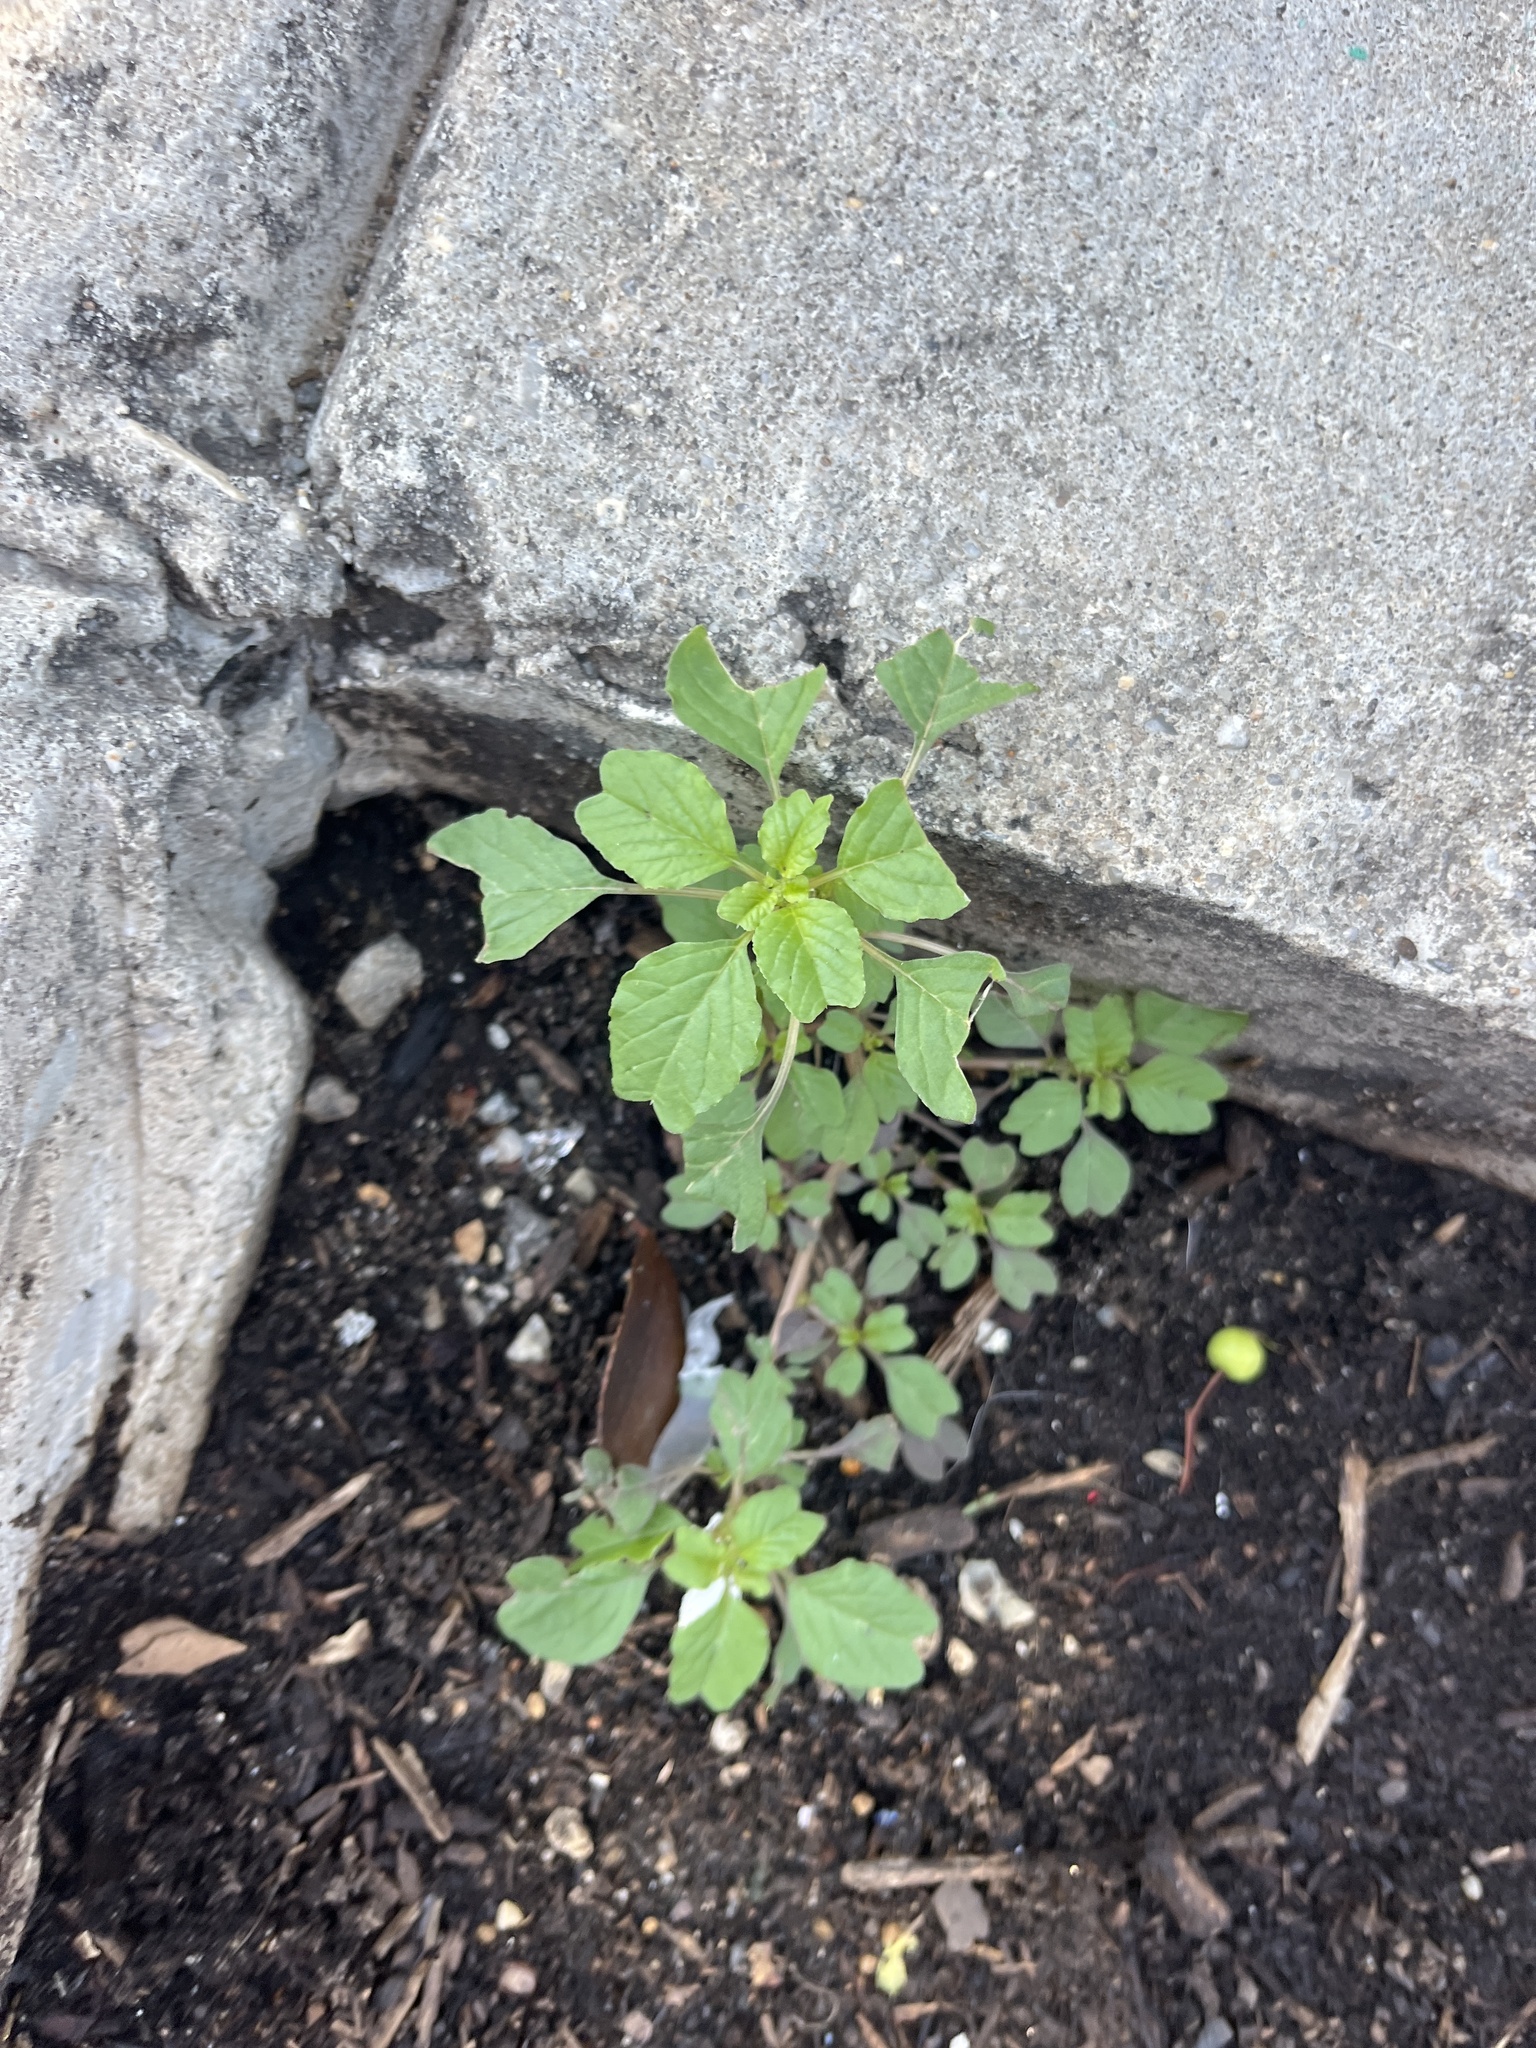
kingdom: Plantae
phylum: Tracheophyta
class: Magnoliopsida
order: Caryophyllales
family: Amaranthaceae
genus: Amaranthus
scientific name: Amaranthus blitum
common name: Purple amaranth
